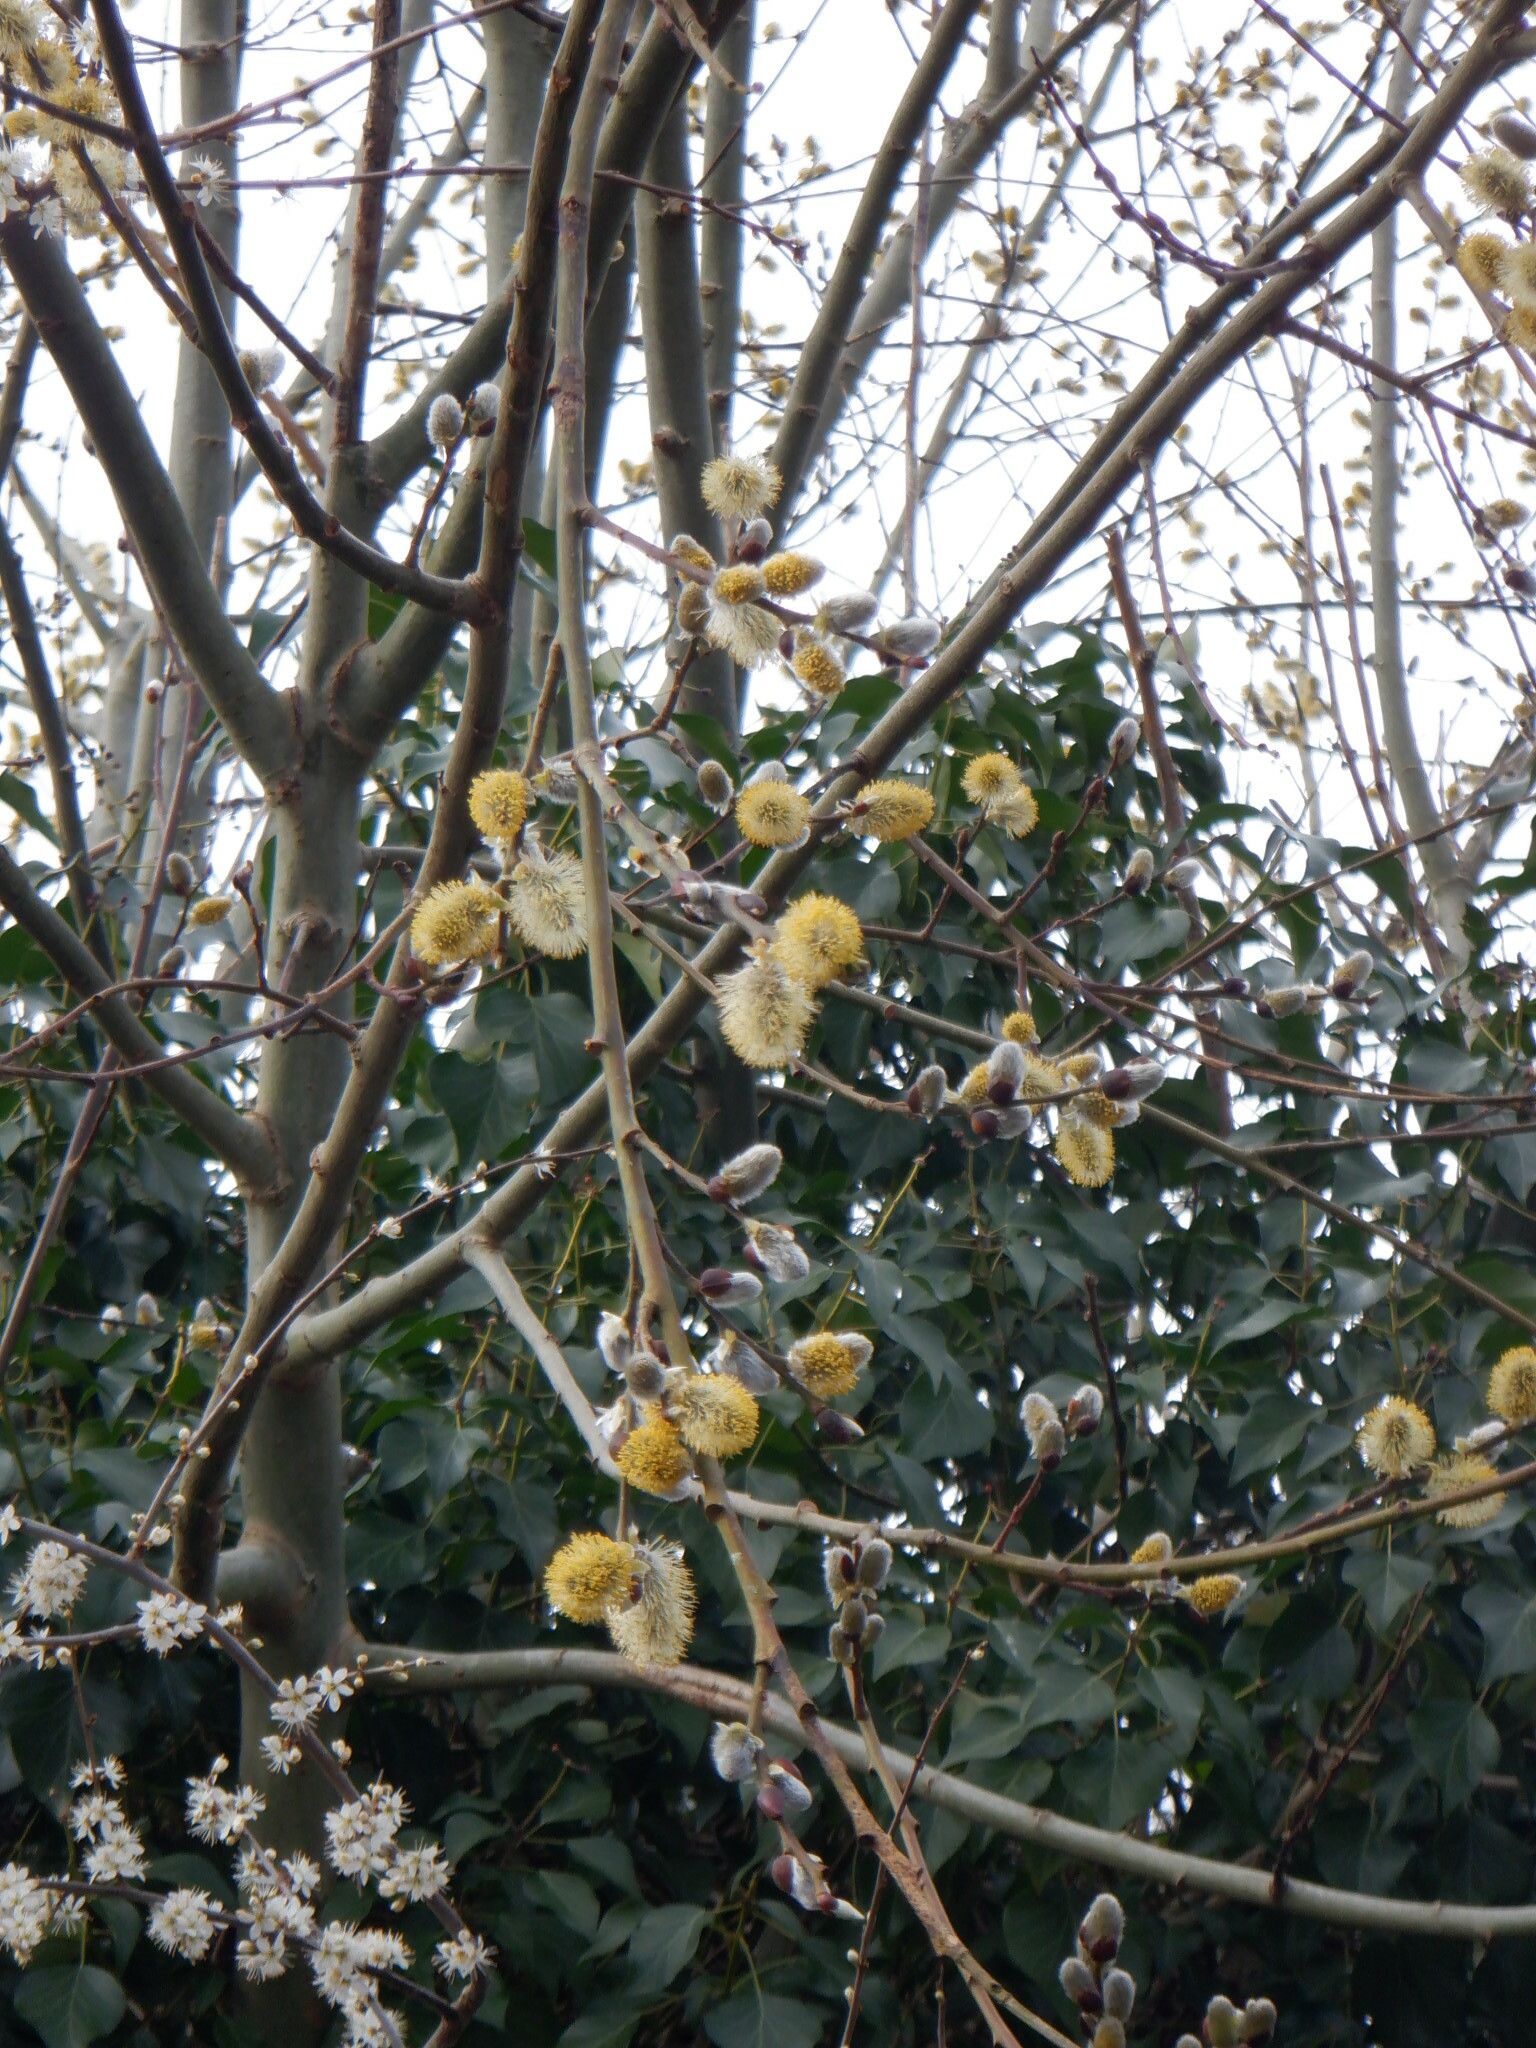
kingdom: Plantae
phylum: Tracheophyta
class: Magnoliopsida
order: Malpighiales
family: Salicaceae
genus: Salix
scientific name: Salix caprea
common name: Goat willow
